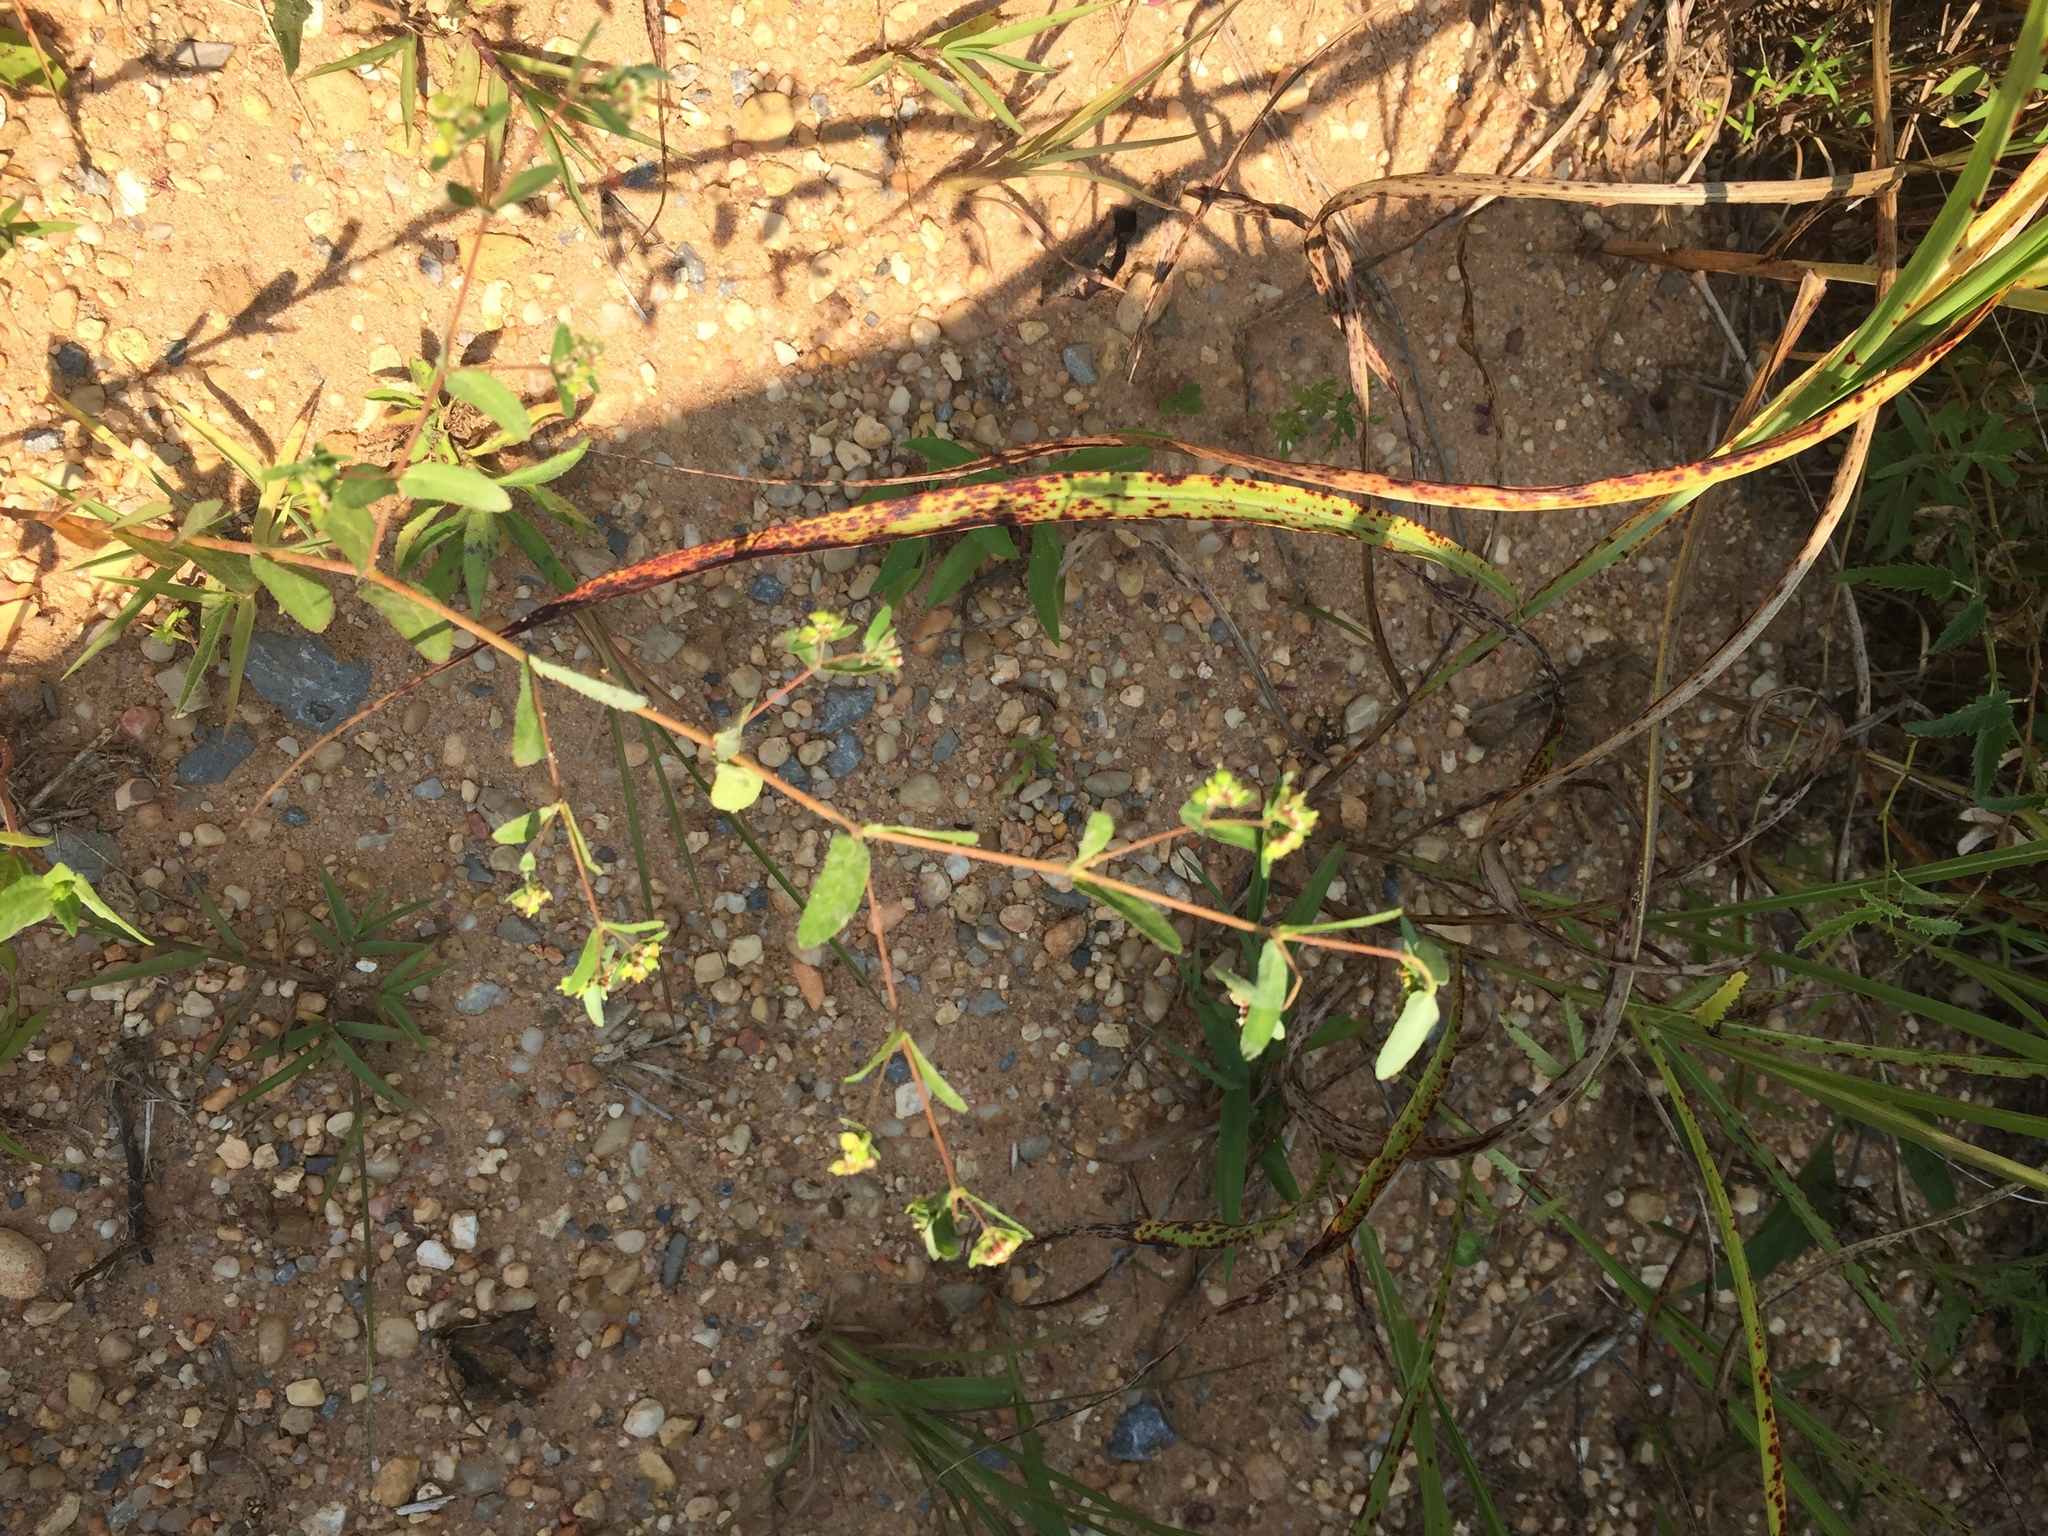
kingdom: Plantae
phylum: Tracheophyta
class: Magnoliopsida
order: Malpighiales
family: Euphorbiaceae
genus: Euphorbia
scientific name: Euphorbia nutans
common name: Eyebane
